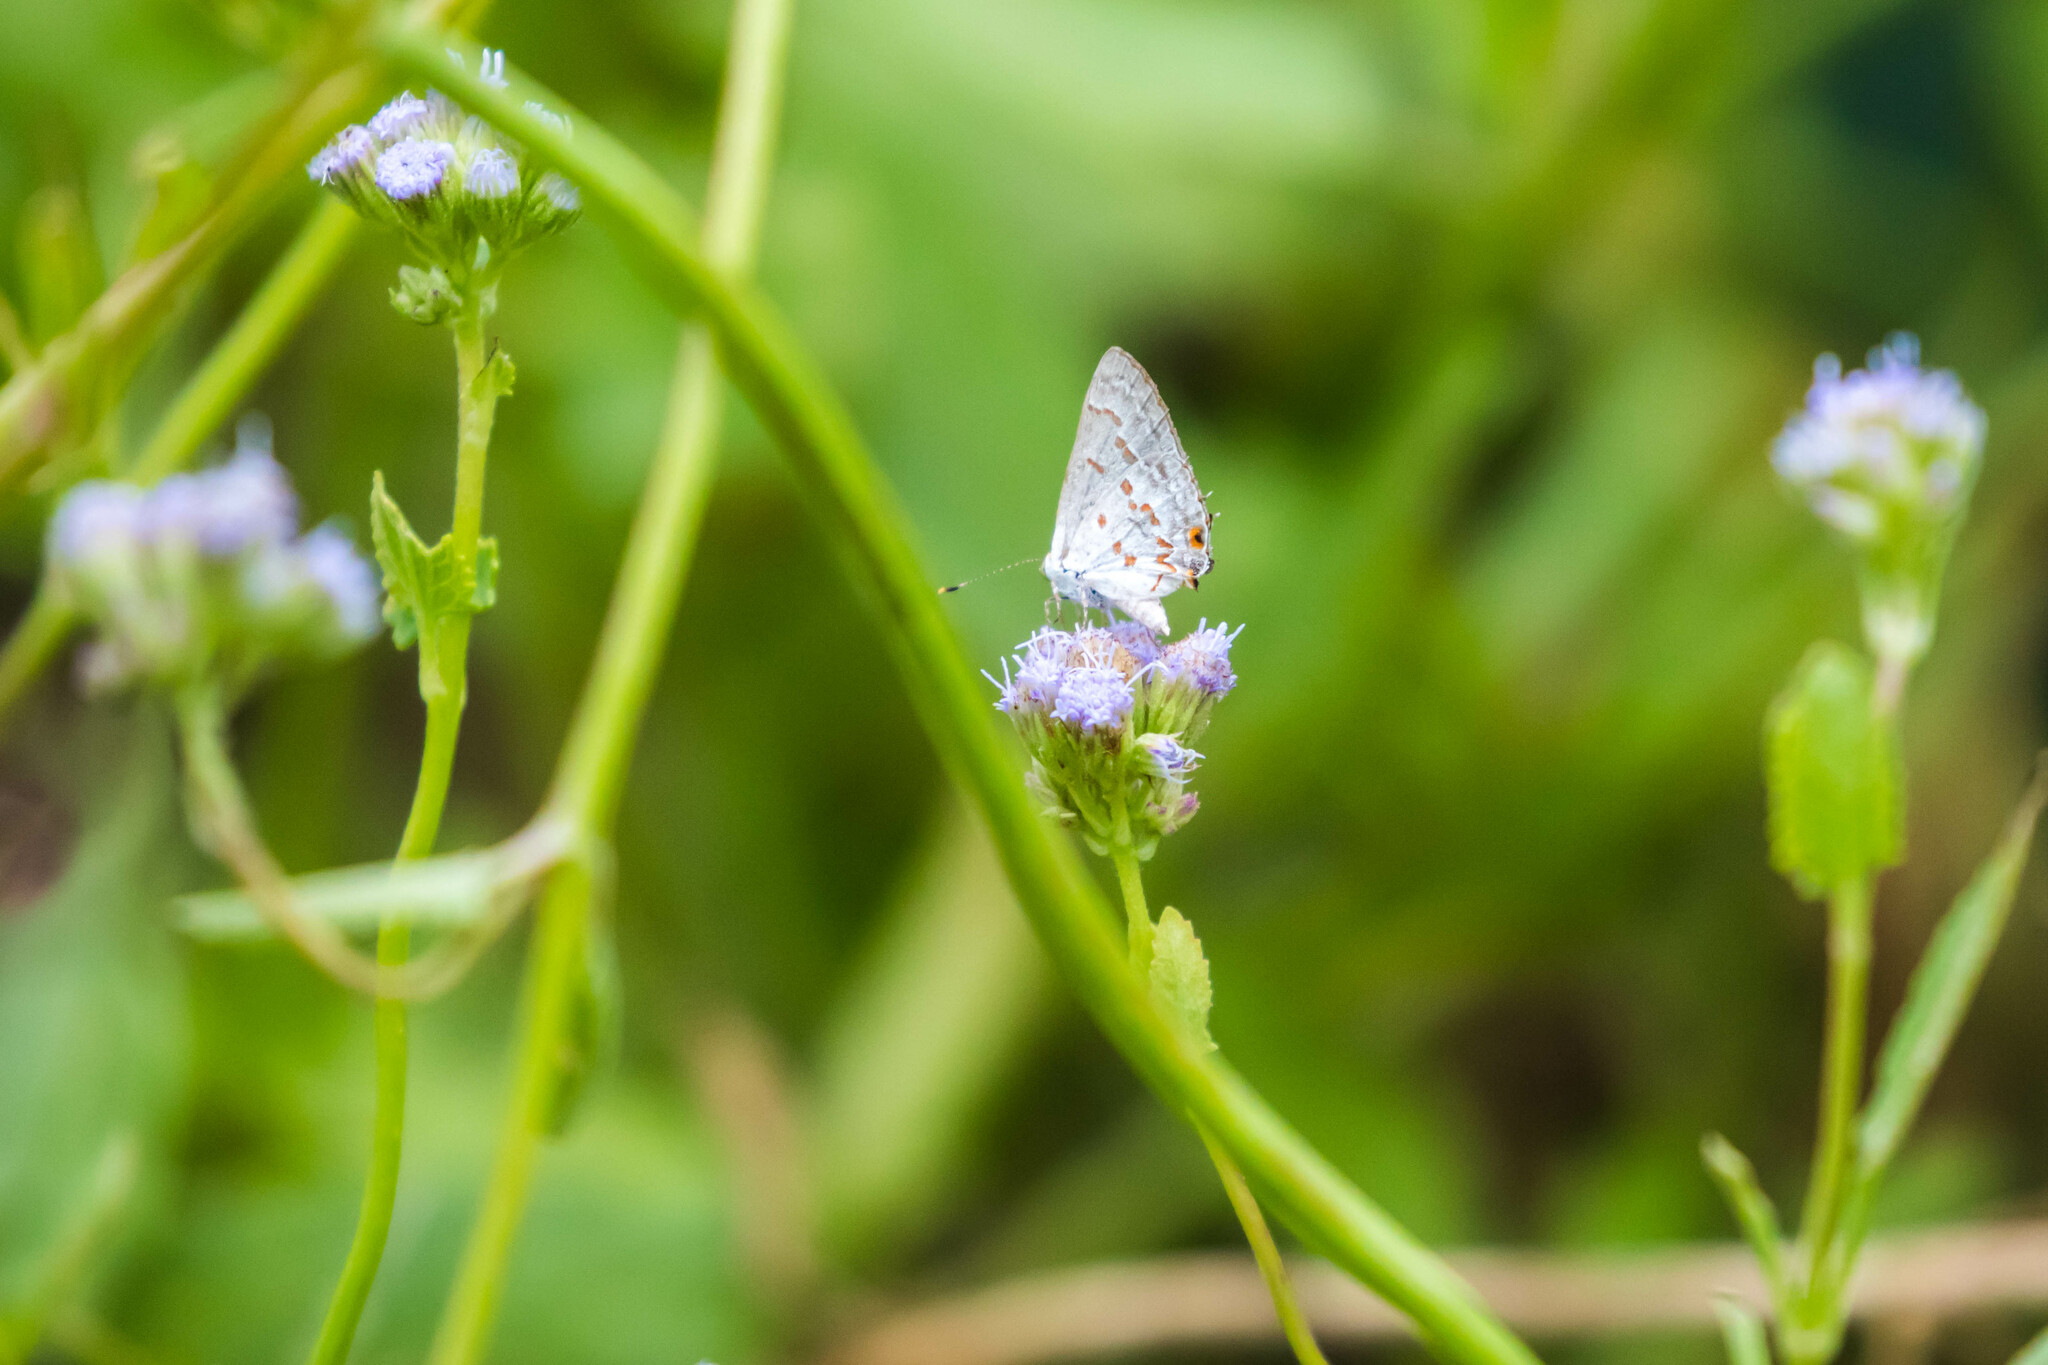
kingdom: Animalia
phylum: Arthropoda
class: Insecta
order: Lepidoptera
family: Lycaenidae
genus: Ministrymon
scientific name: Ministrymon clytie
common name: Clytie ministreak
